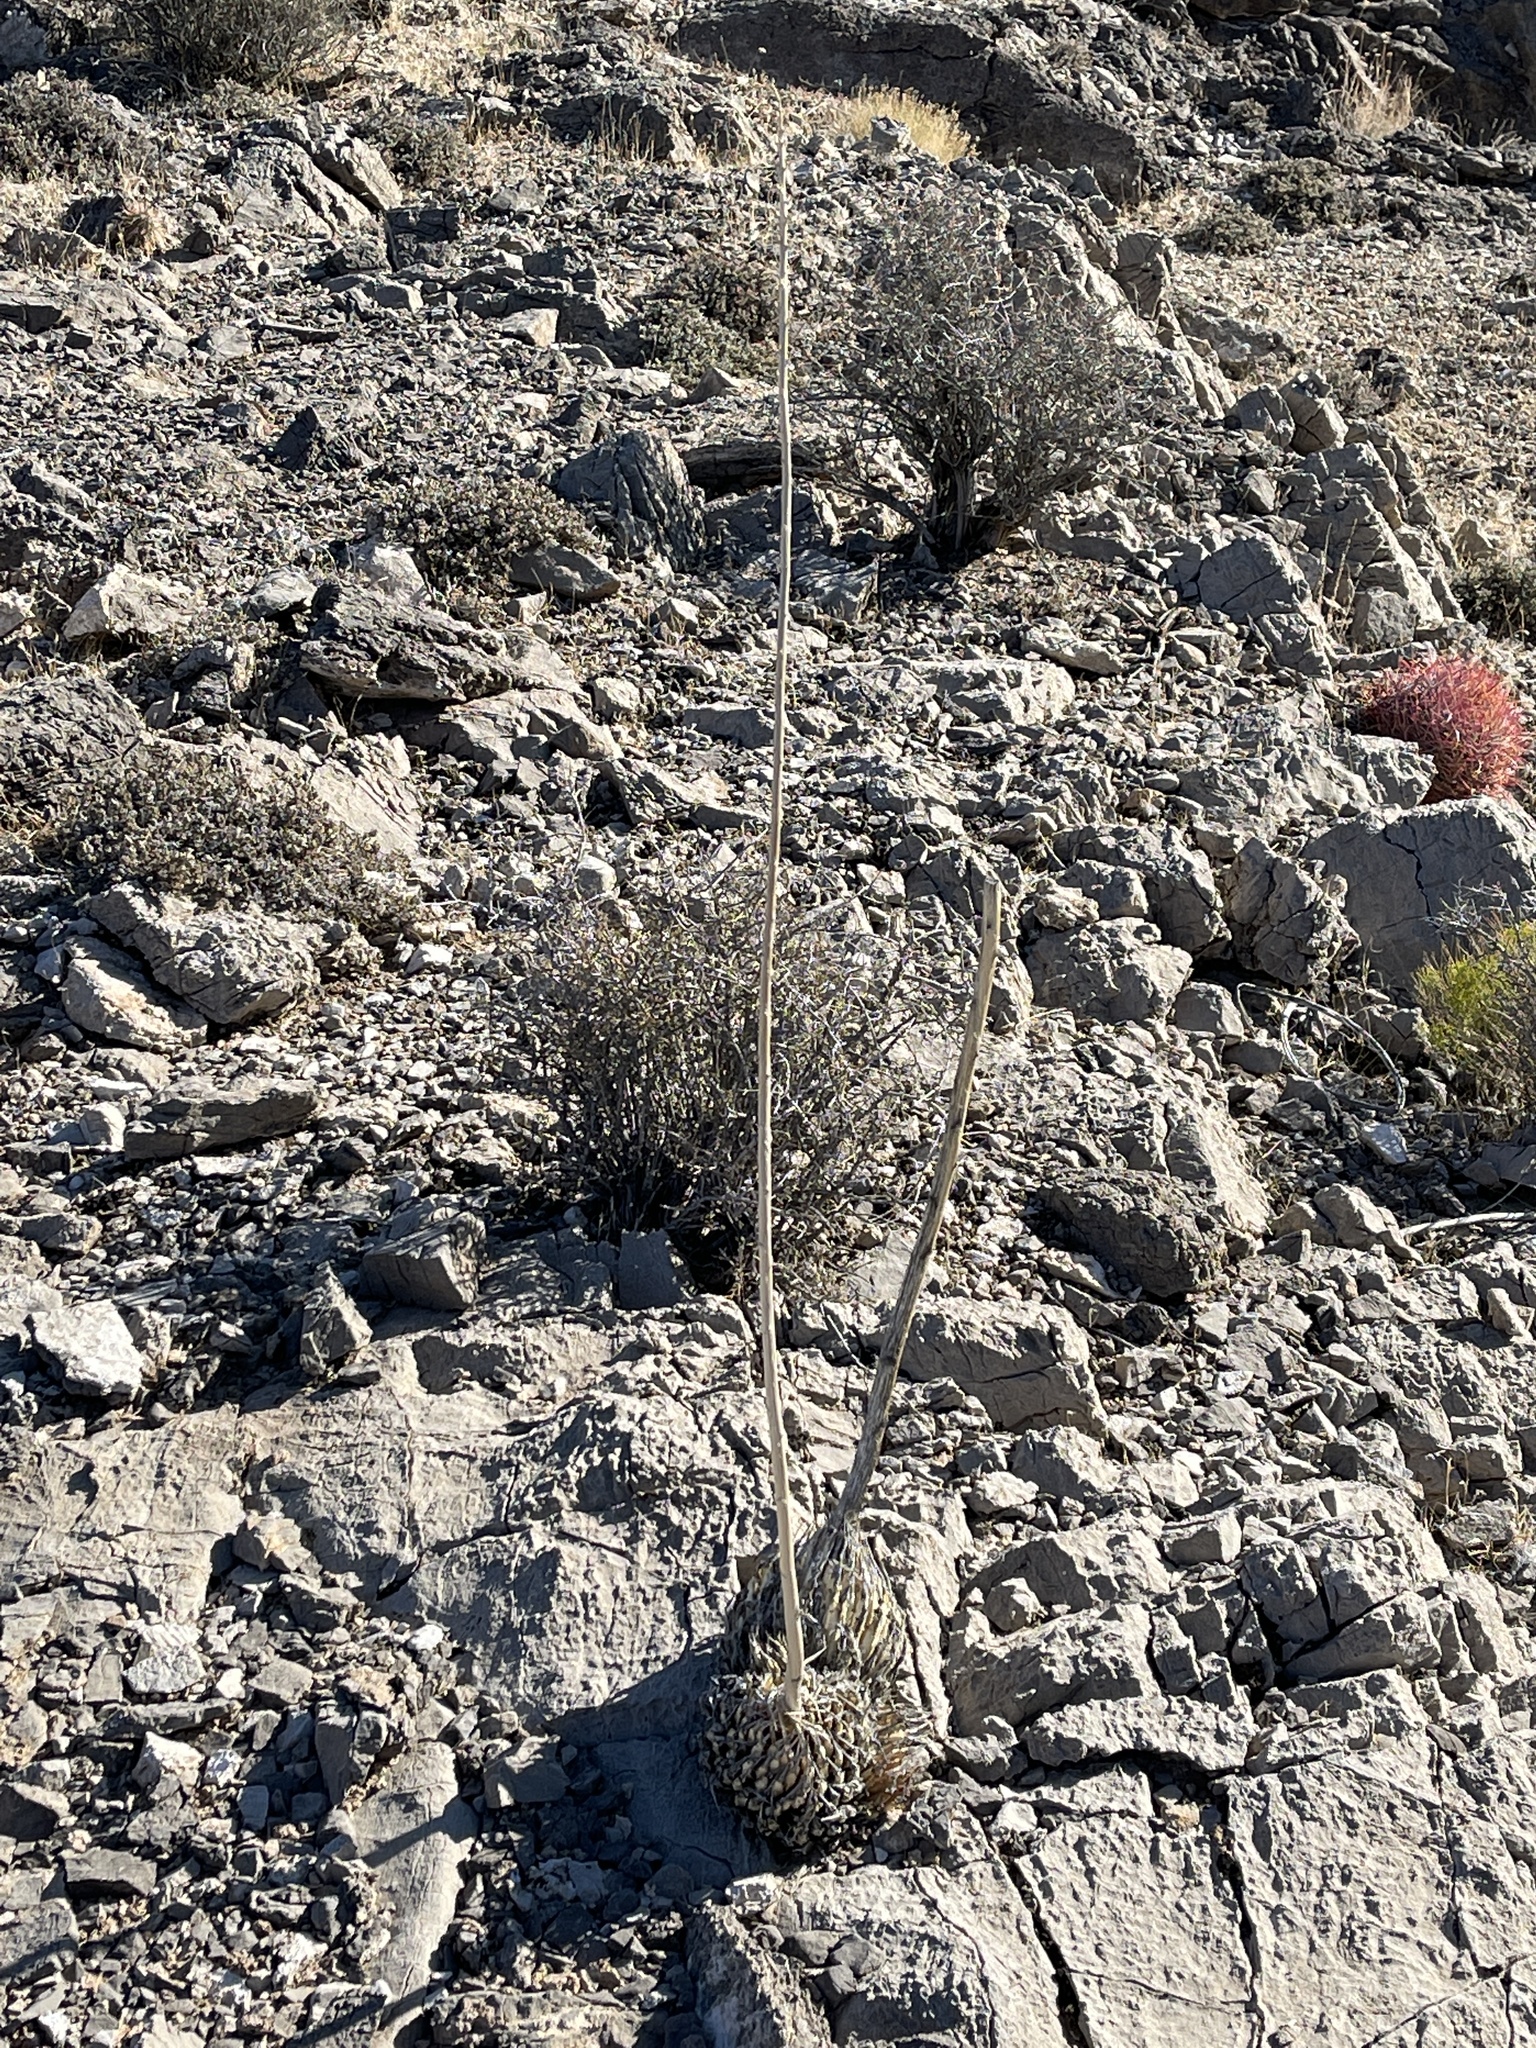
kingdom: Plantae
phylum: Tracheophyta
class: Liliopsida
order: Asparagales
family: Asparagaceae
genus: Agave
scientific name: Agave utahensis
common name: Utah agave
